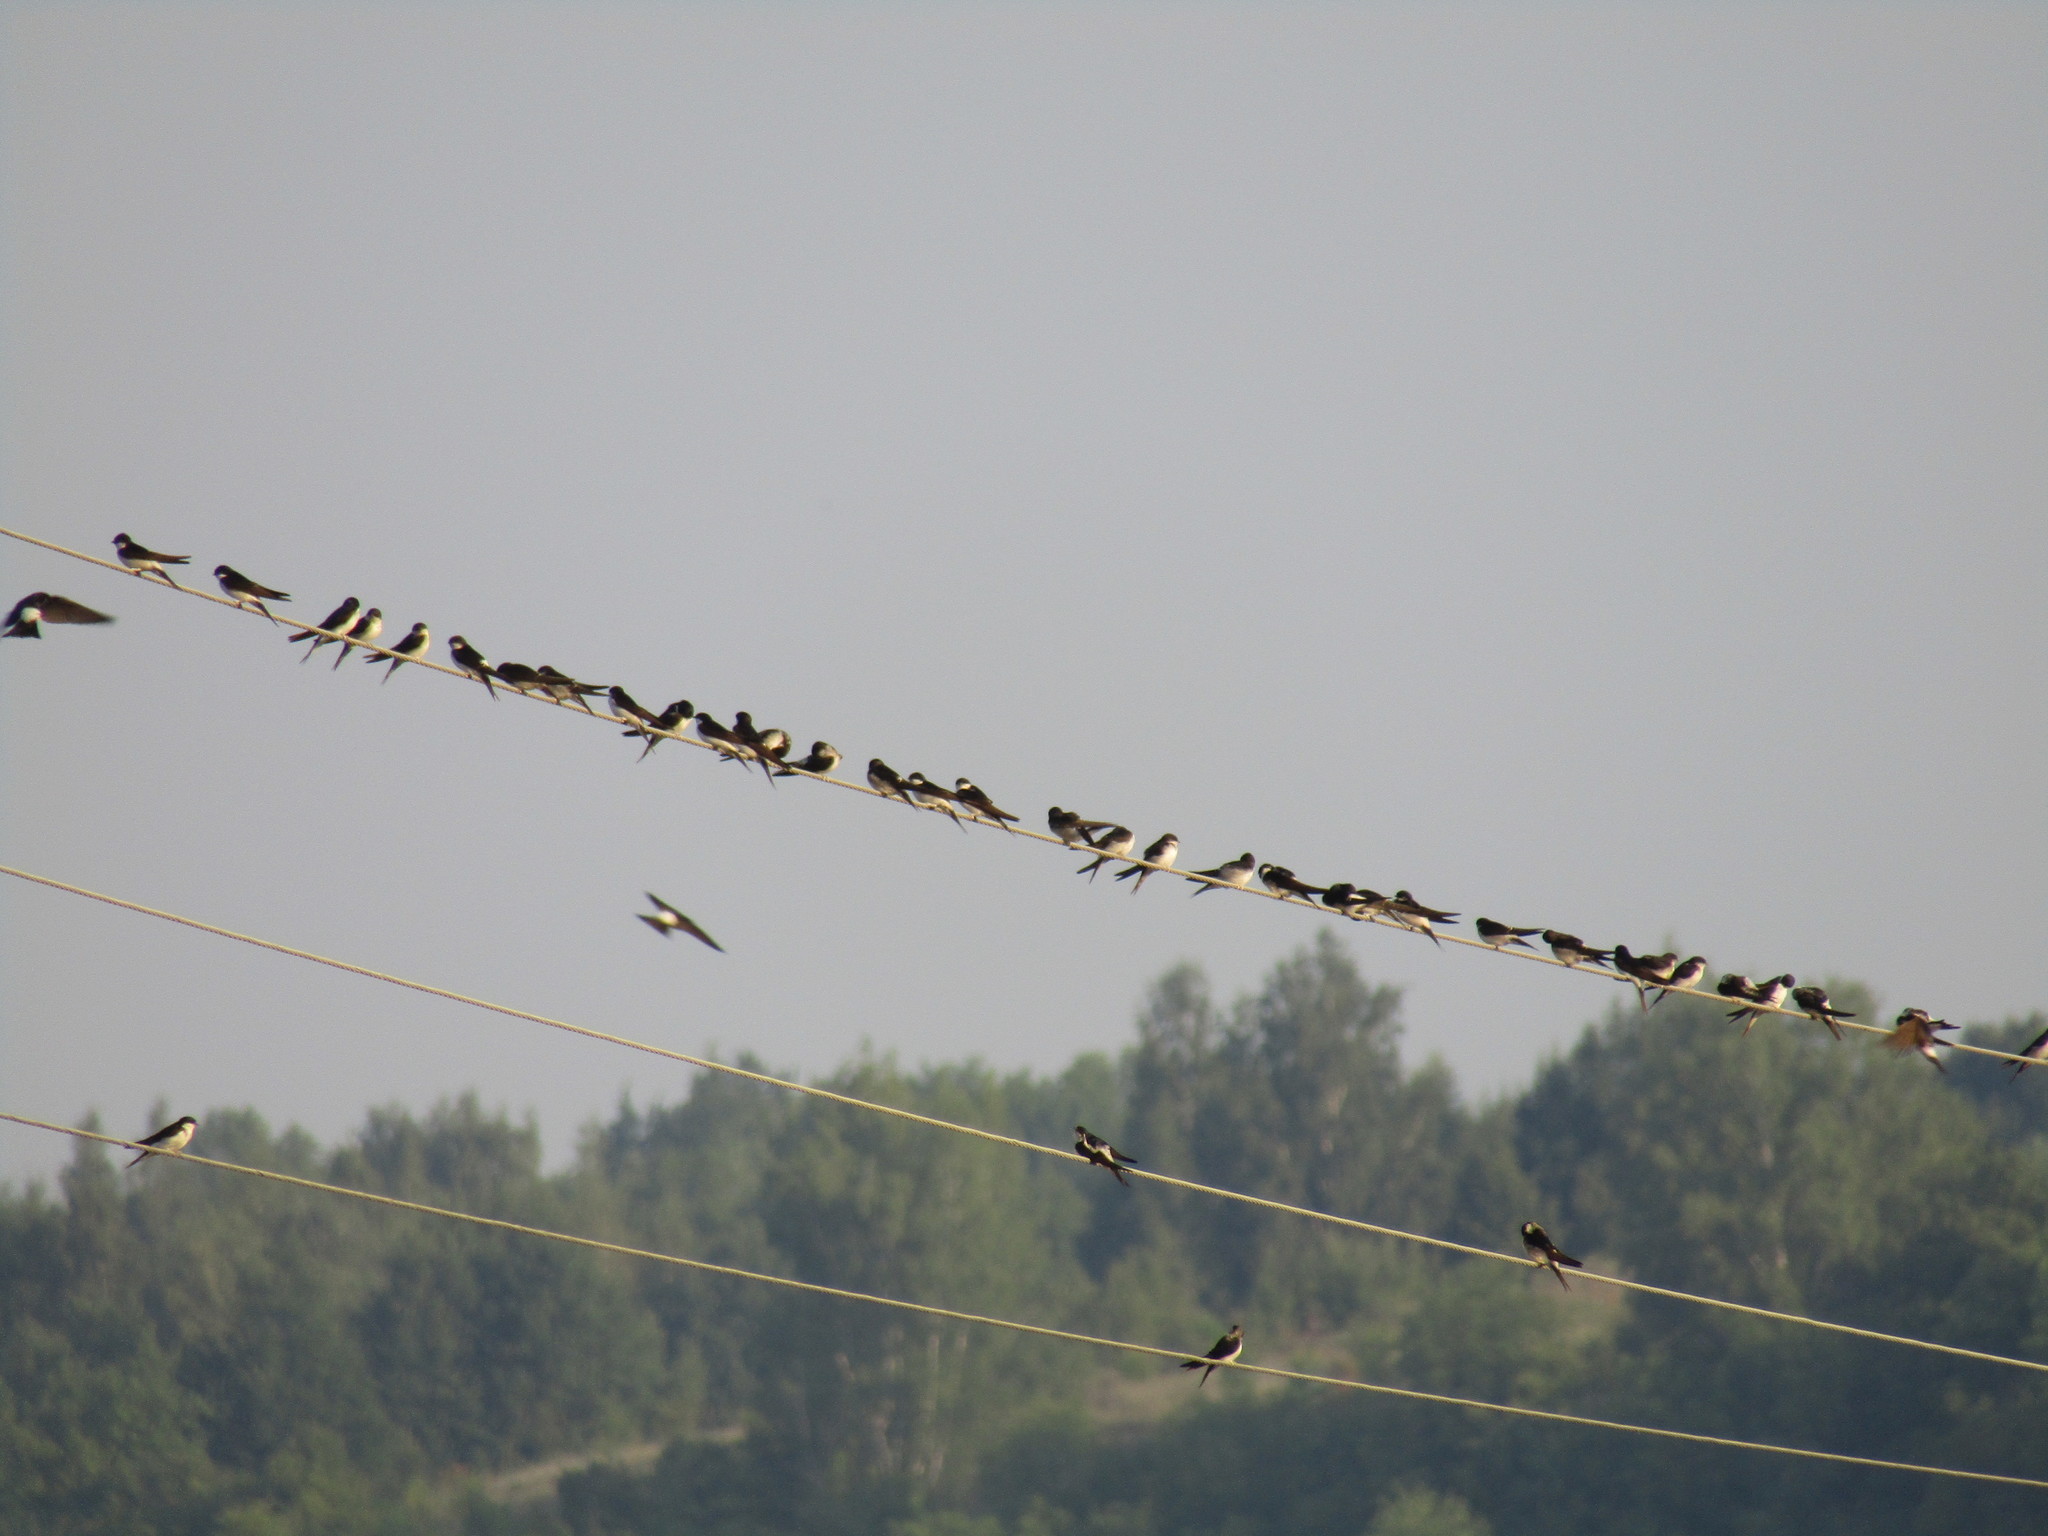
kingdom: Animalia
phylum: Chordata
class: Aves
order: Passeriformes
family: Hirundinidae
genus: Delichon
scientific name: Delichon urbicum
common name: Common house martin
